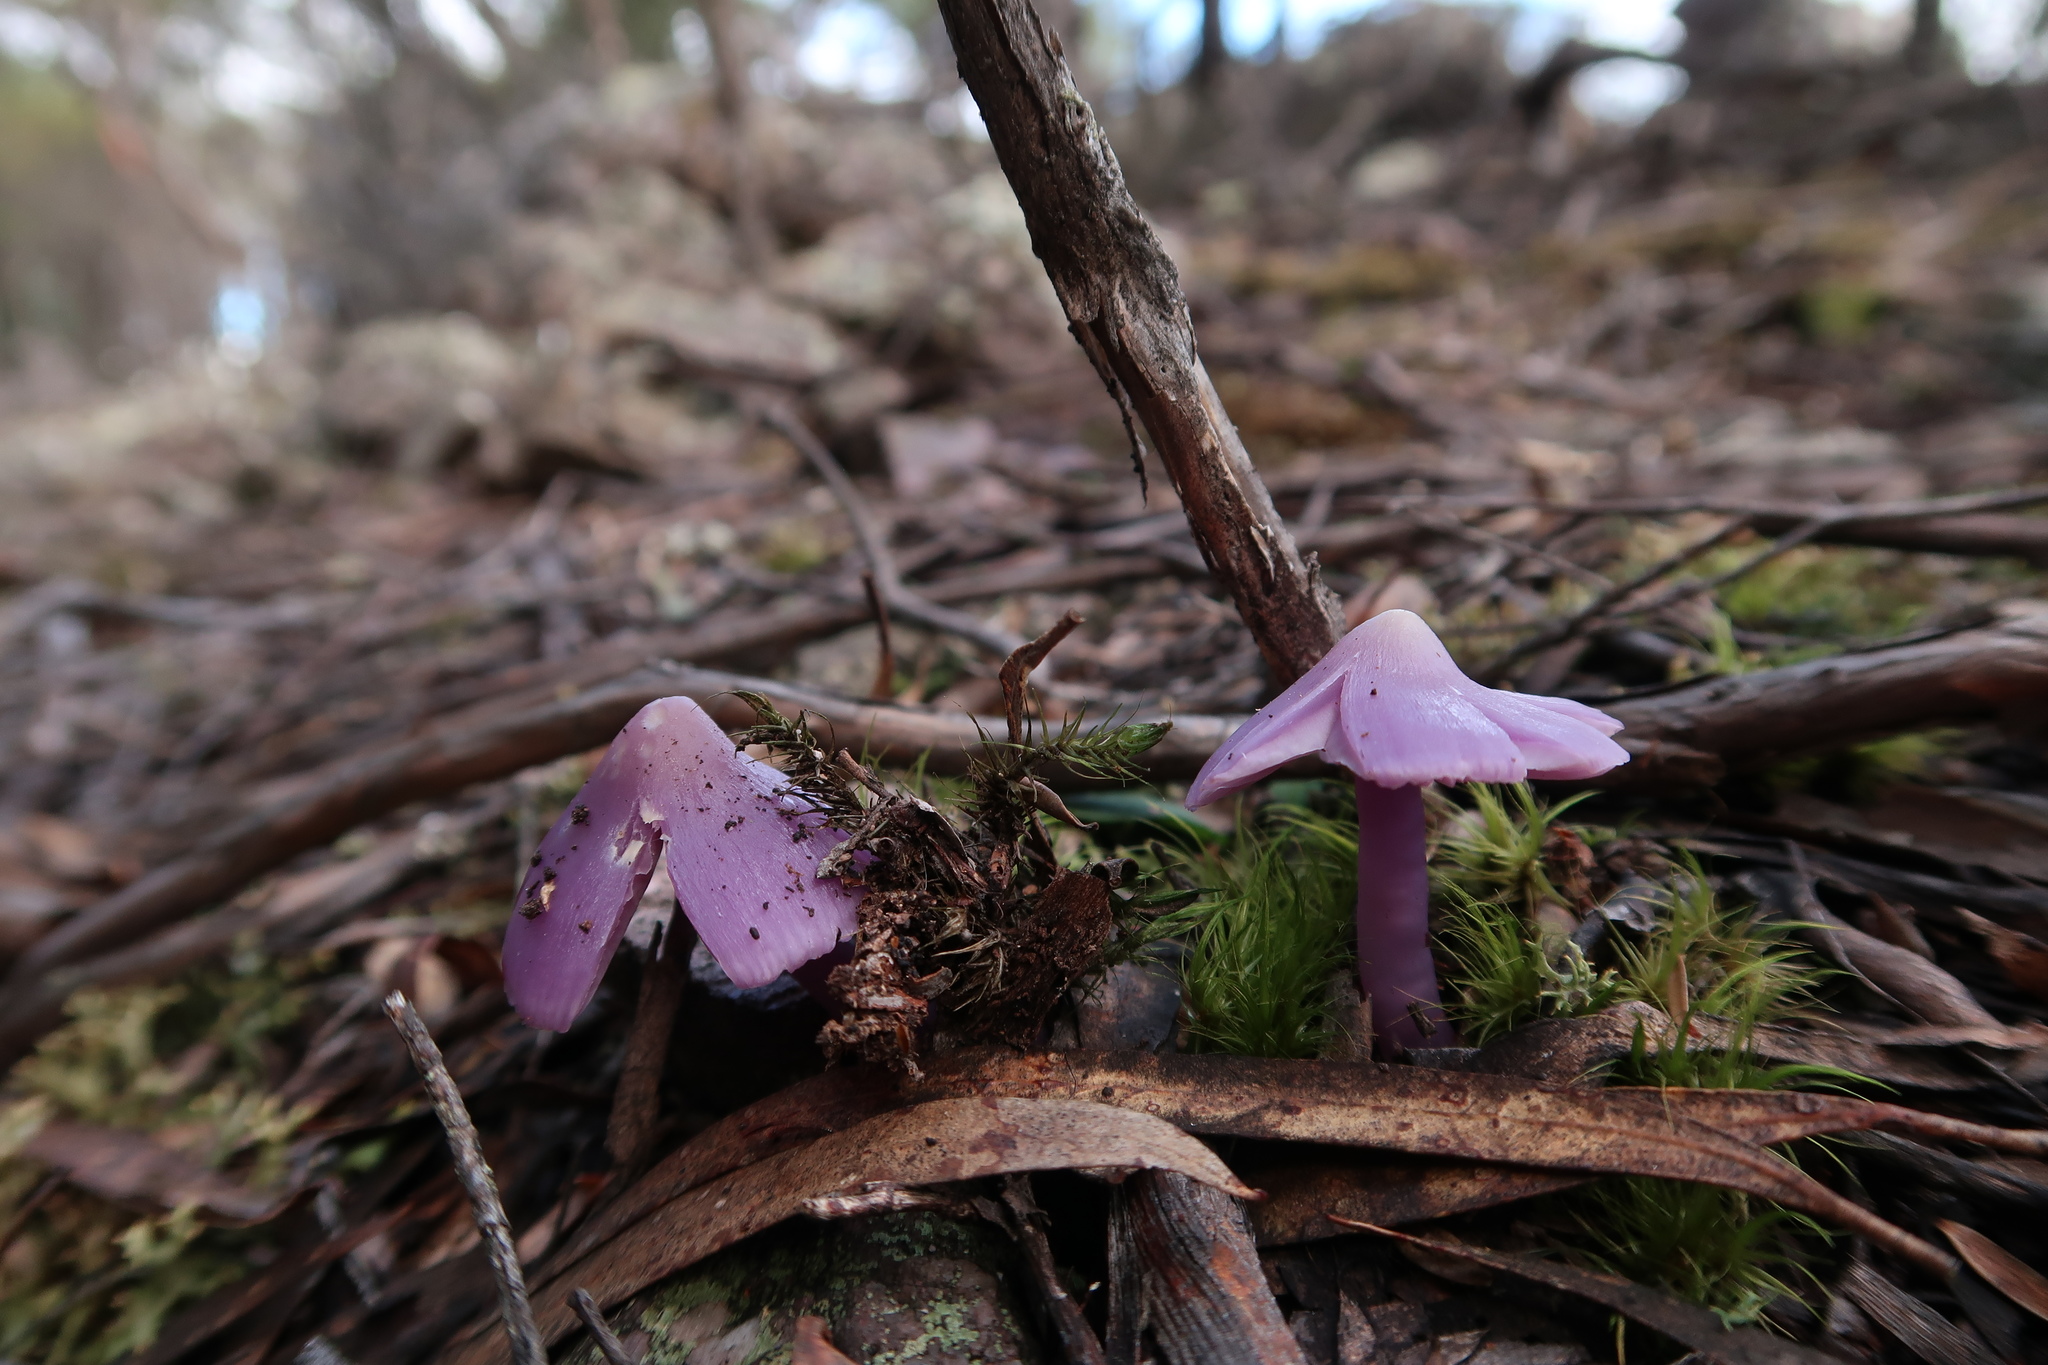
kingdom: Fungi
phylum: Basidiomycota
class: Agaricomycetes
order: Agaricales
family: Hygrophoraceae
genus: Porpolomopsis
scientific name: Porpolomopsis lewelliniae
